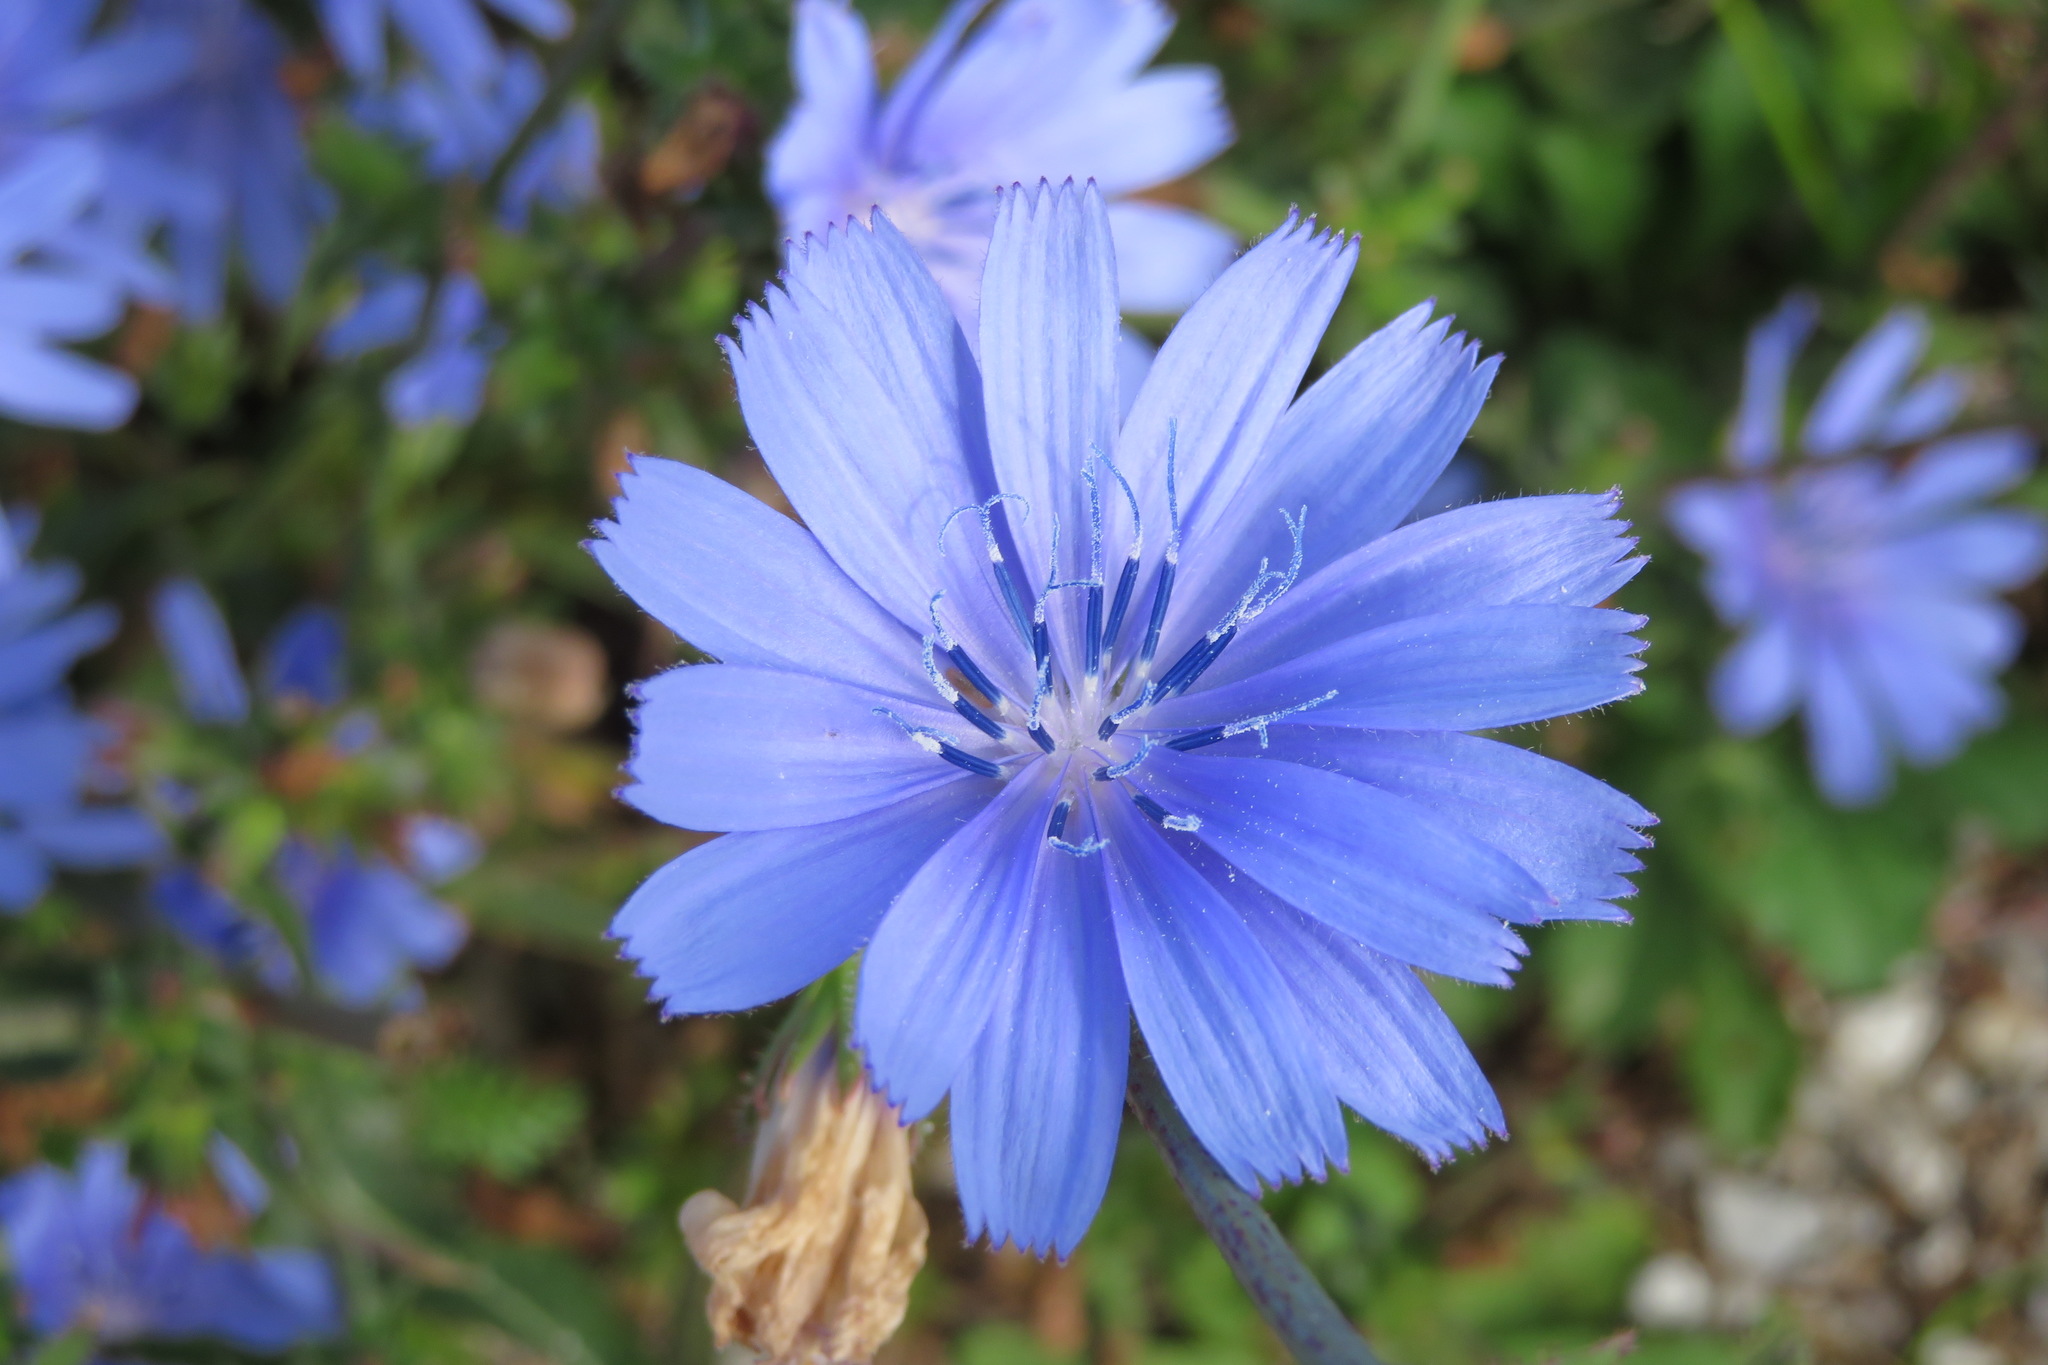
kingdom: Plantae
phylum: Tracheophyta
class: Magnoliopsida
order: Asterales
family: Asteraceae
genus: Cichorium
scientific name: Cichorium intybus
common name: Chicory
